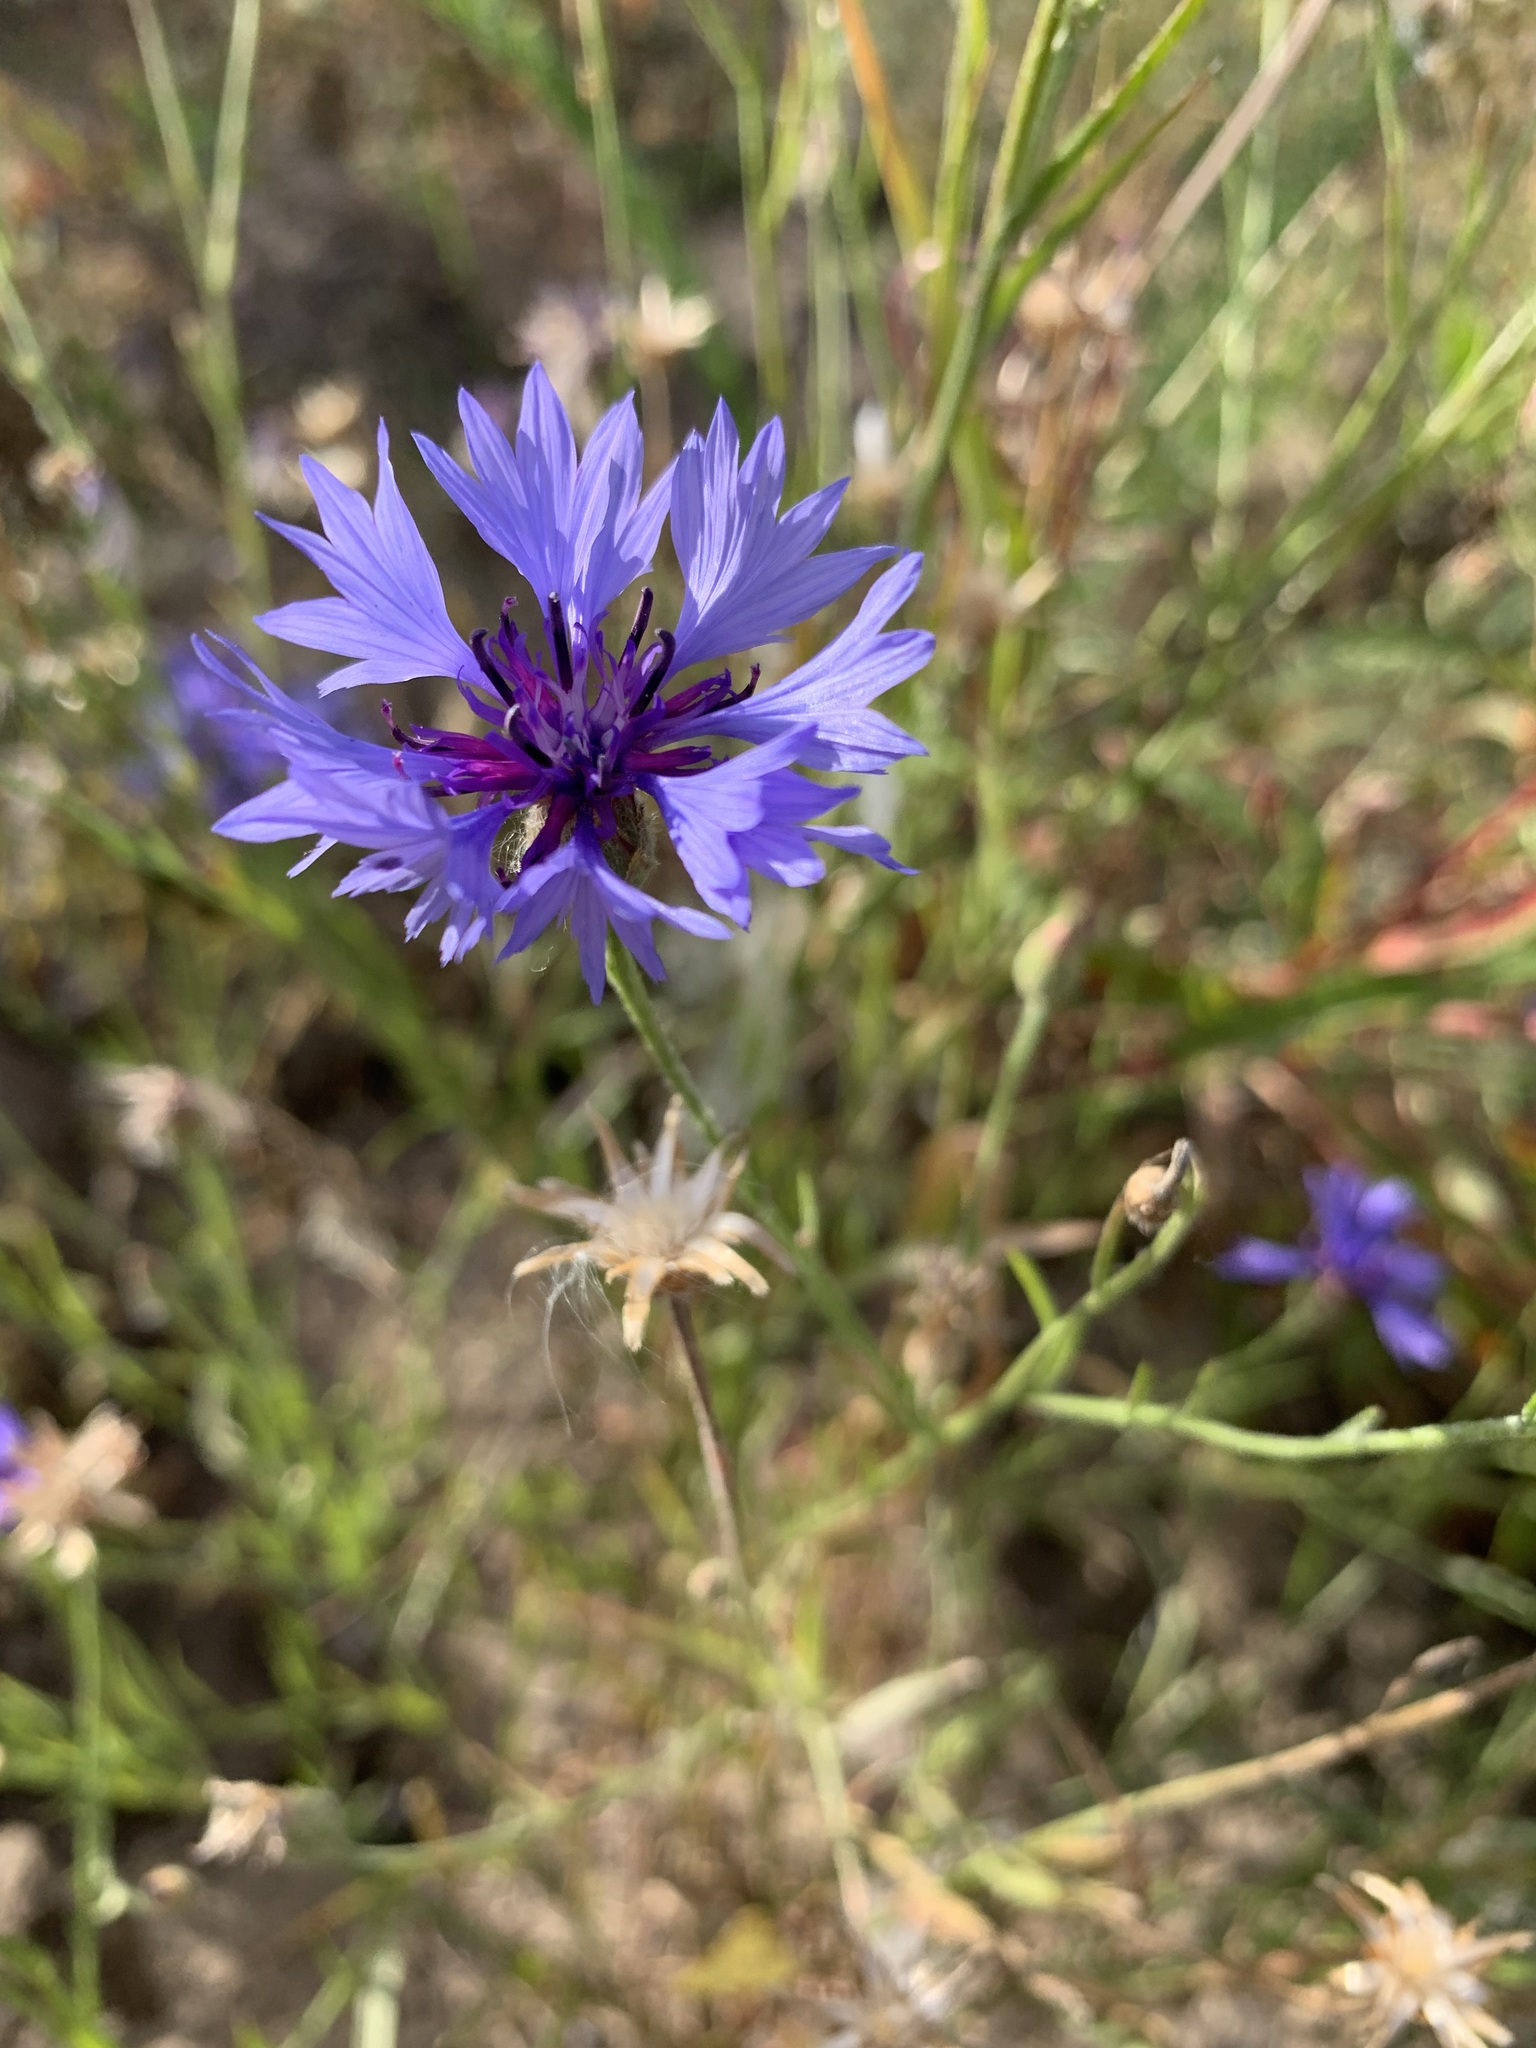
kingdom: Plantae
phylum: Tracheophyta
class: Magnoliopsida
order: Asterales
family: Asteraceae
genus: Centaurea
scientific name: Centaurea cyanus
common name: Cornflower
